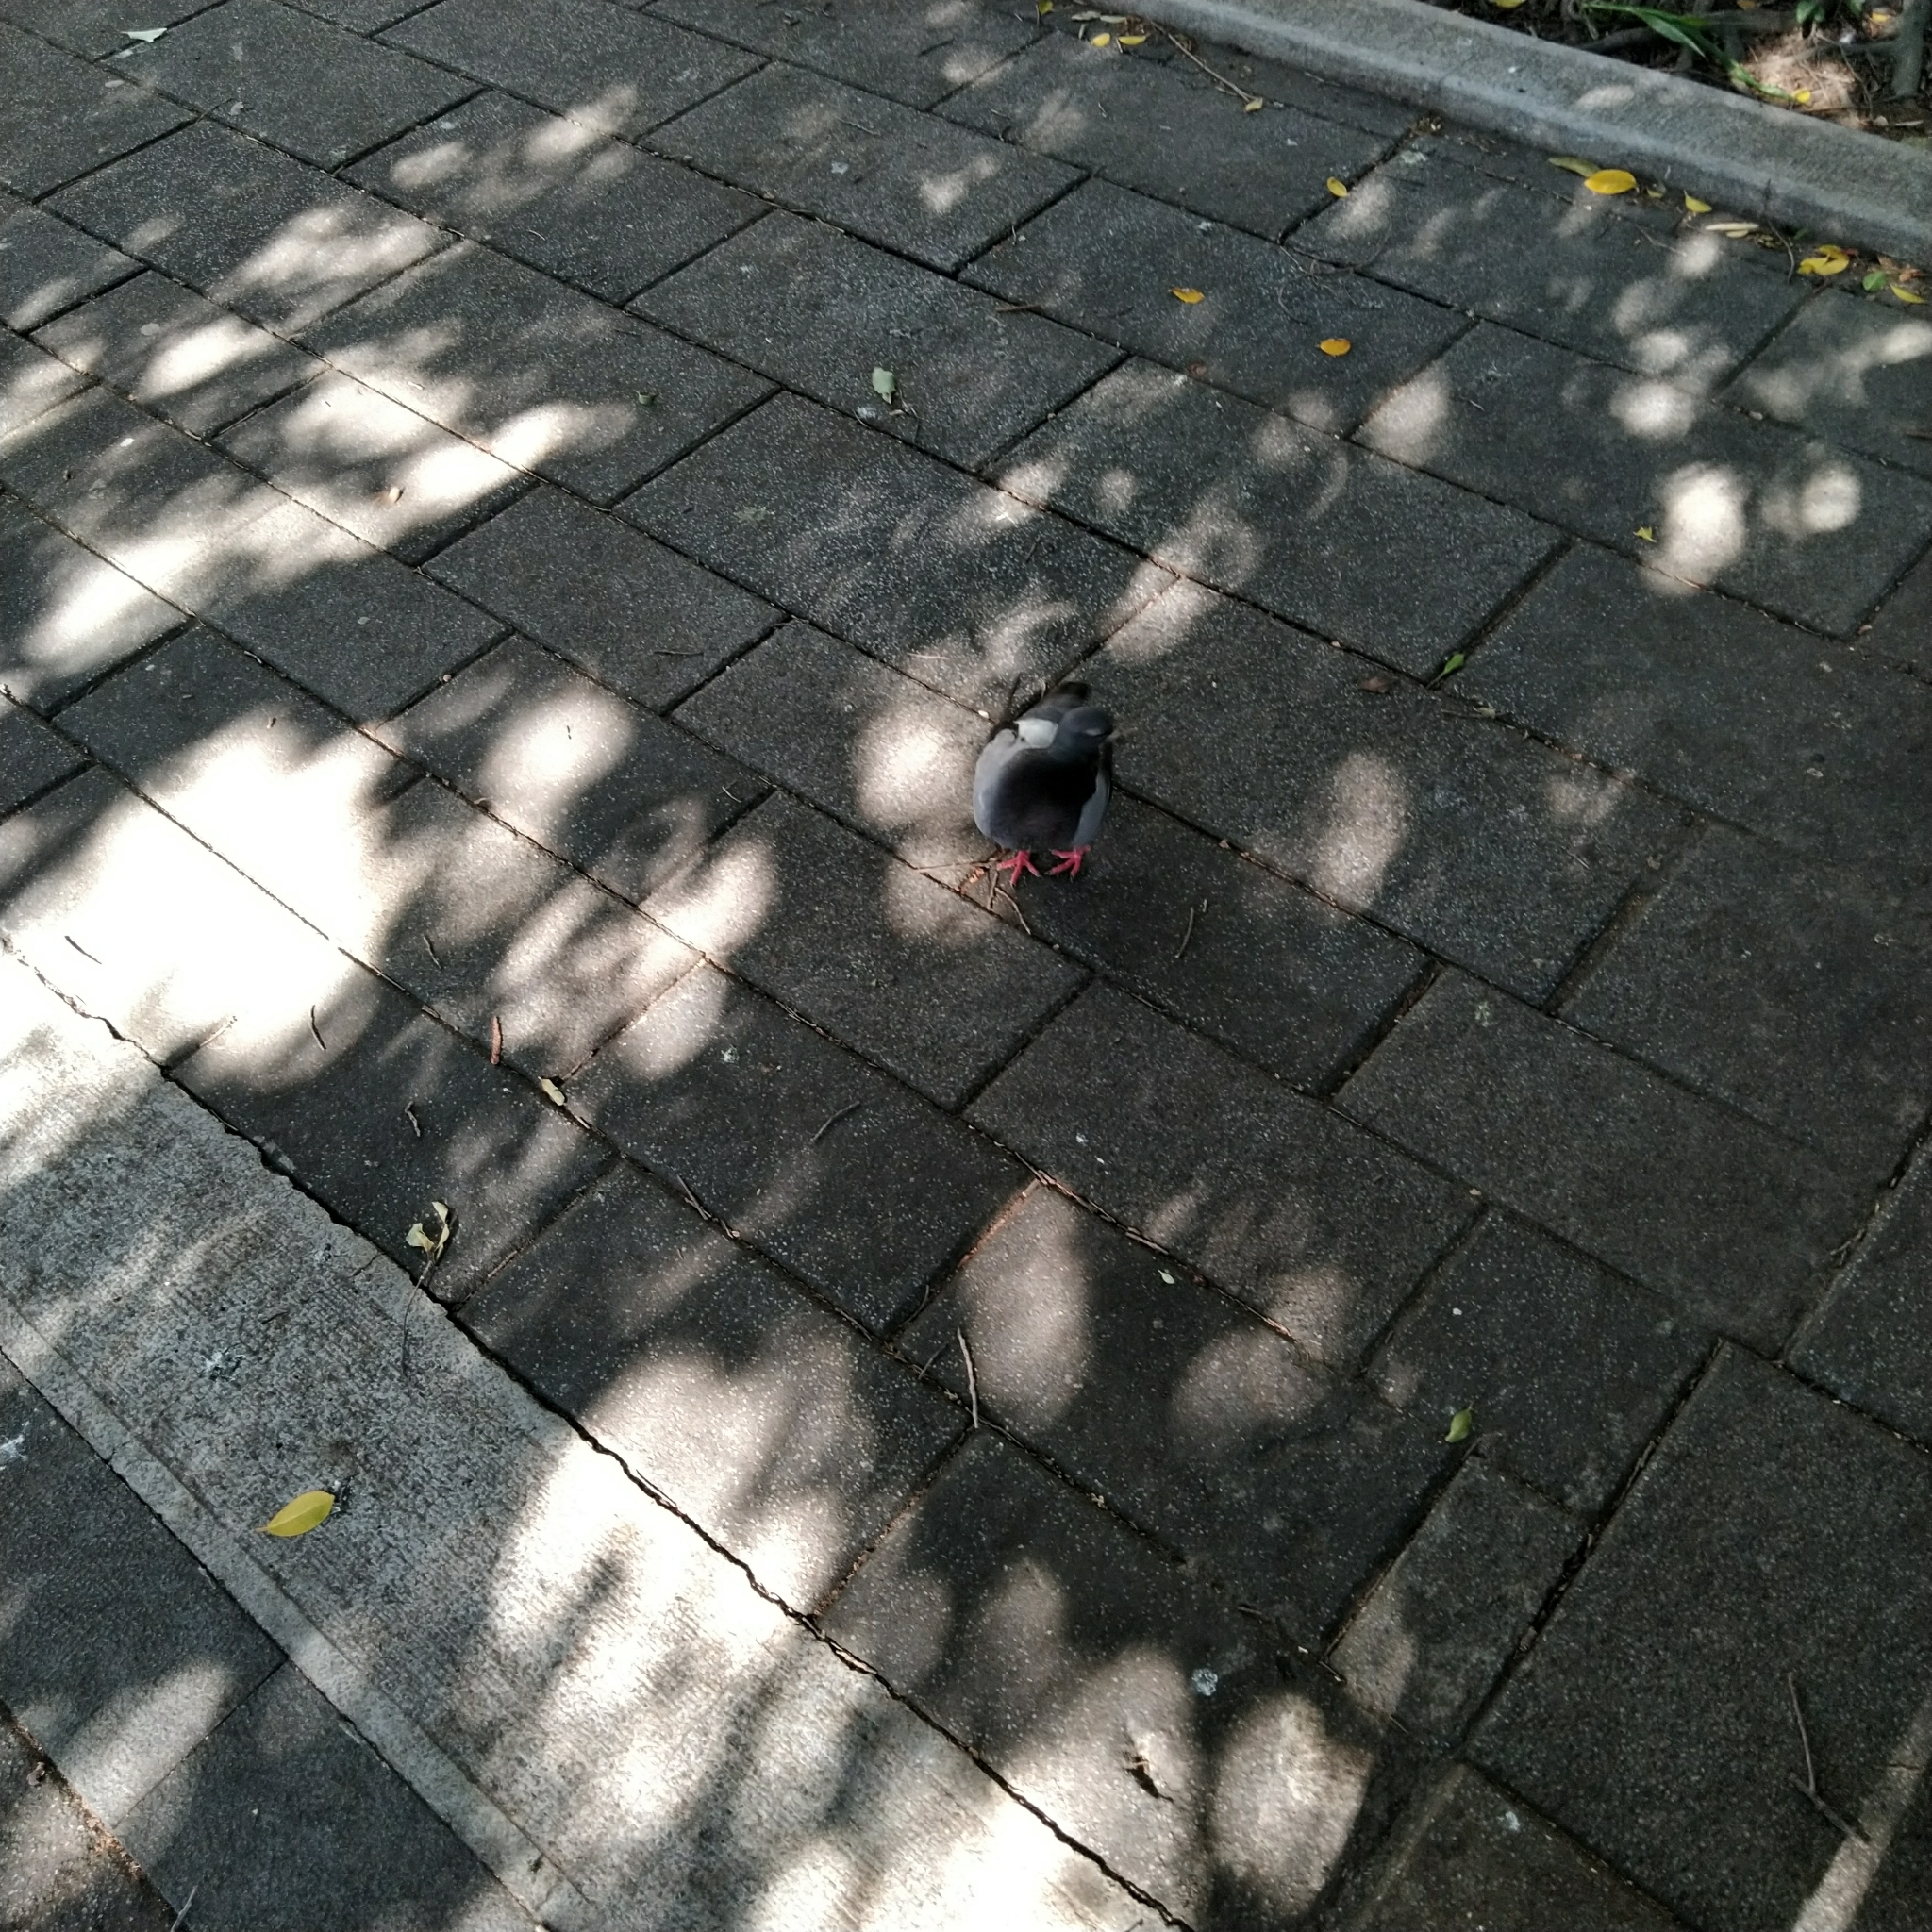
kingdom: Animalia
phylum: Chordata
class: Aves
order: Columbiformes
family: Columbidae
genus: Columba
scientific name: Columba livia
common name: Rock pigeon
